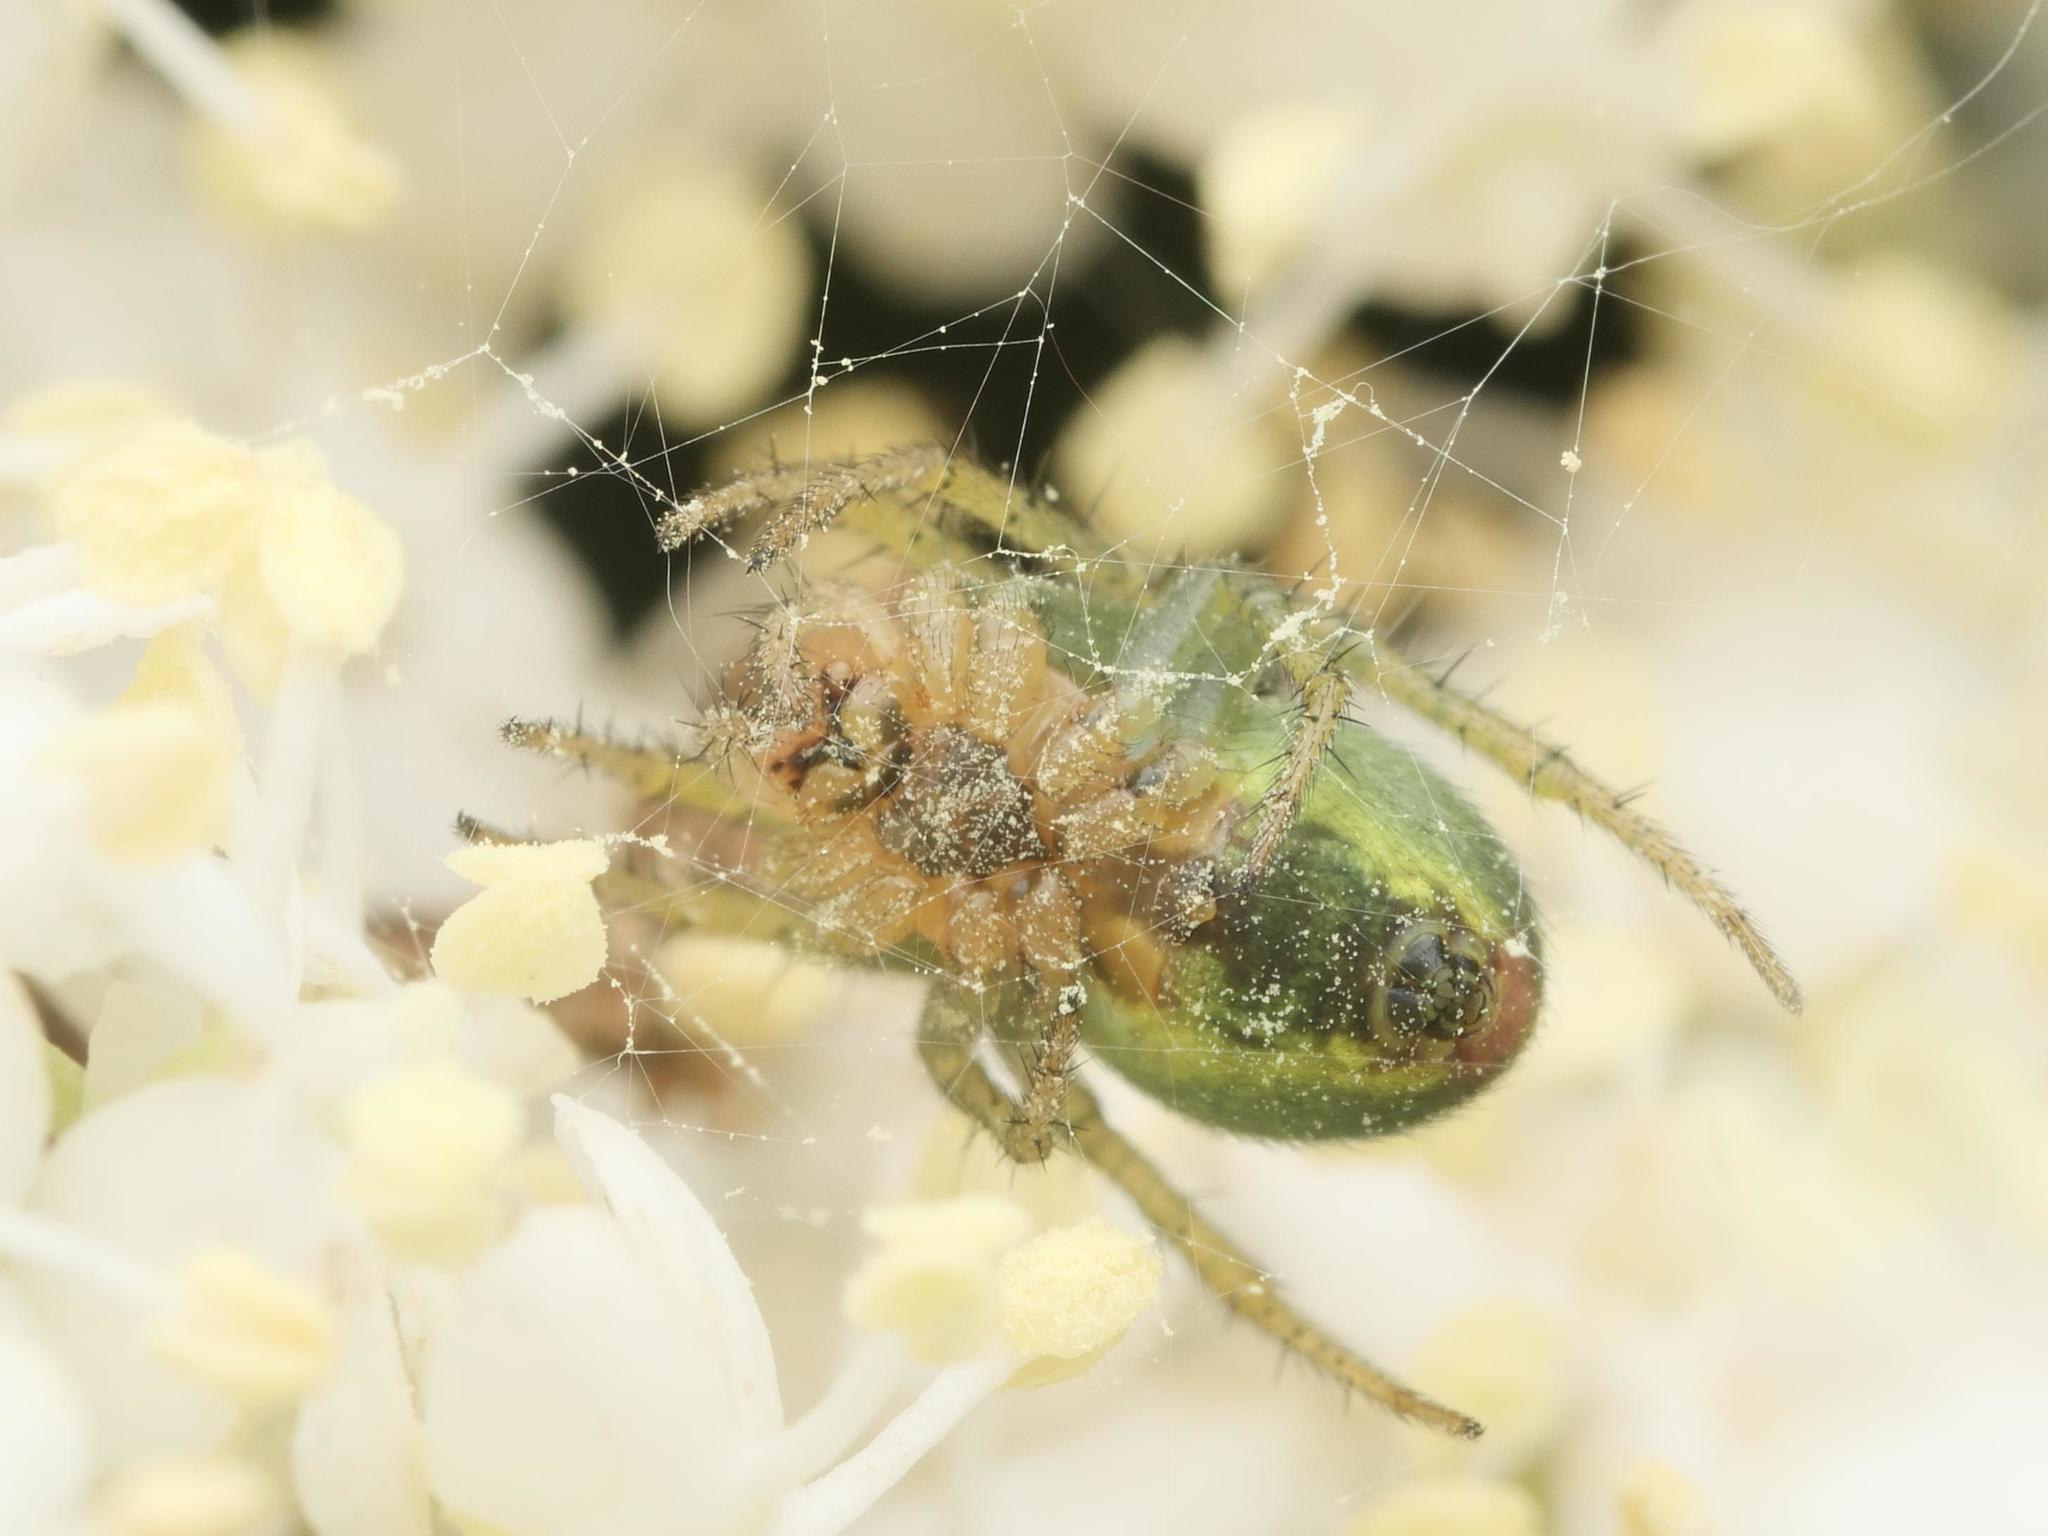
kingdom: Animalia
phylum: Arthropoda
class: Arachnida
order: Araneae
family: Araneidae
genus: Araniella
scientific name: Araniella
